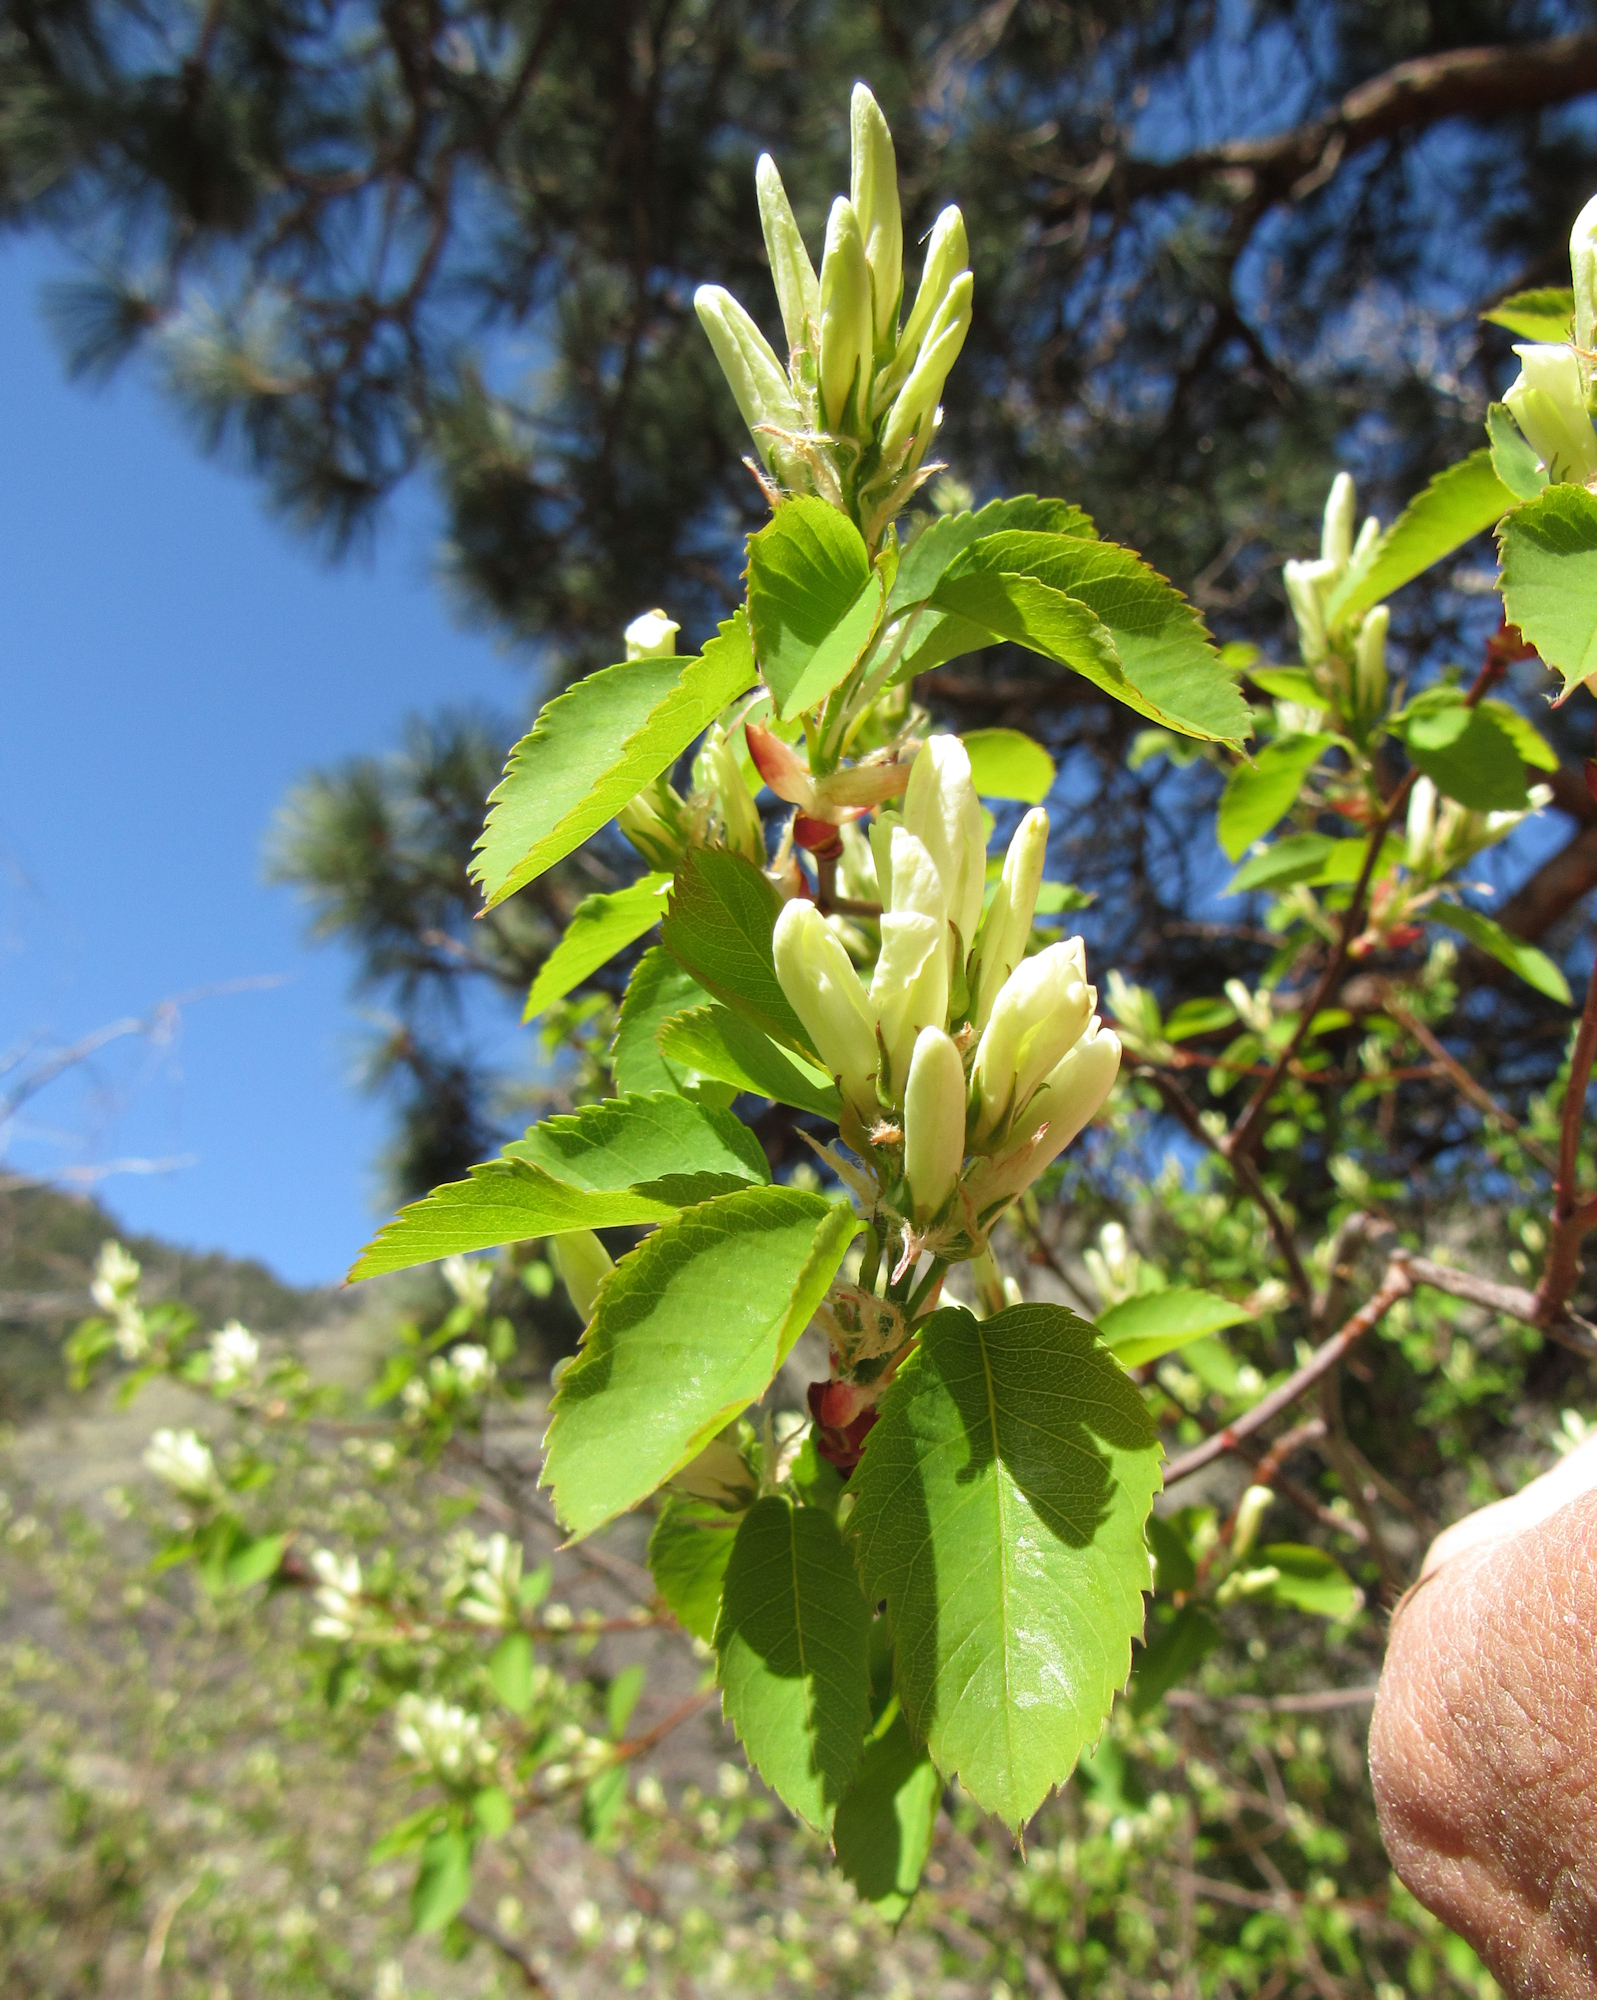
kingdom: Plantae
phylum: Tracheophyta
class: Magnoliopsida
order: Rosales
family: Rosaceae
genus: Amelanchier
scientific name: Amelanchier alnifolia
